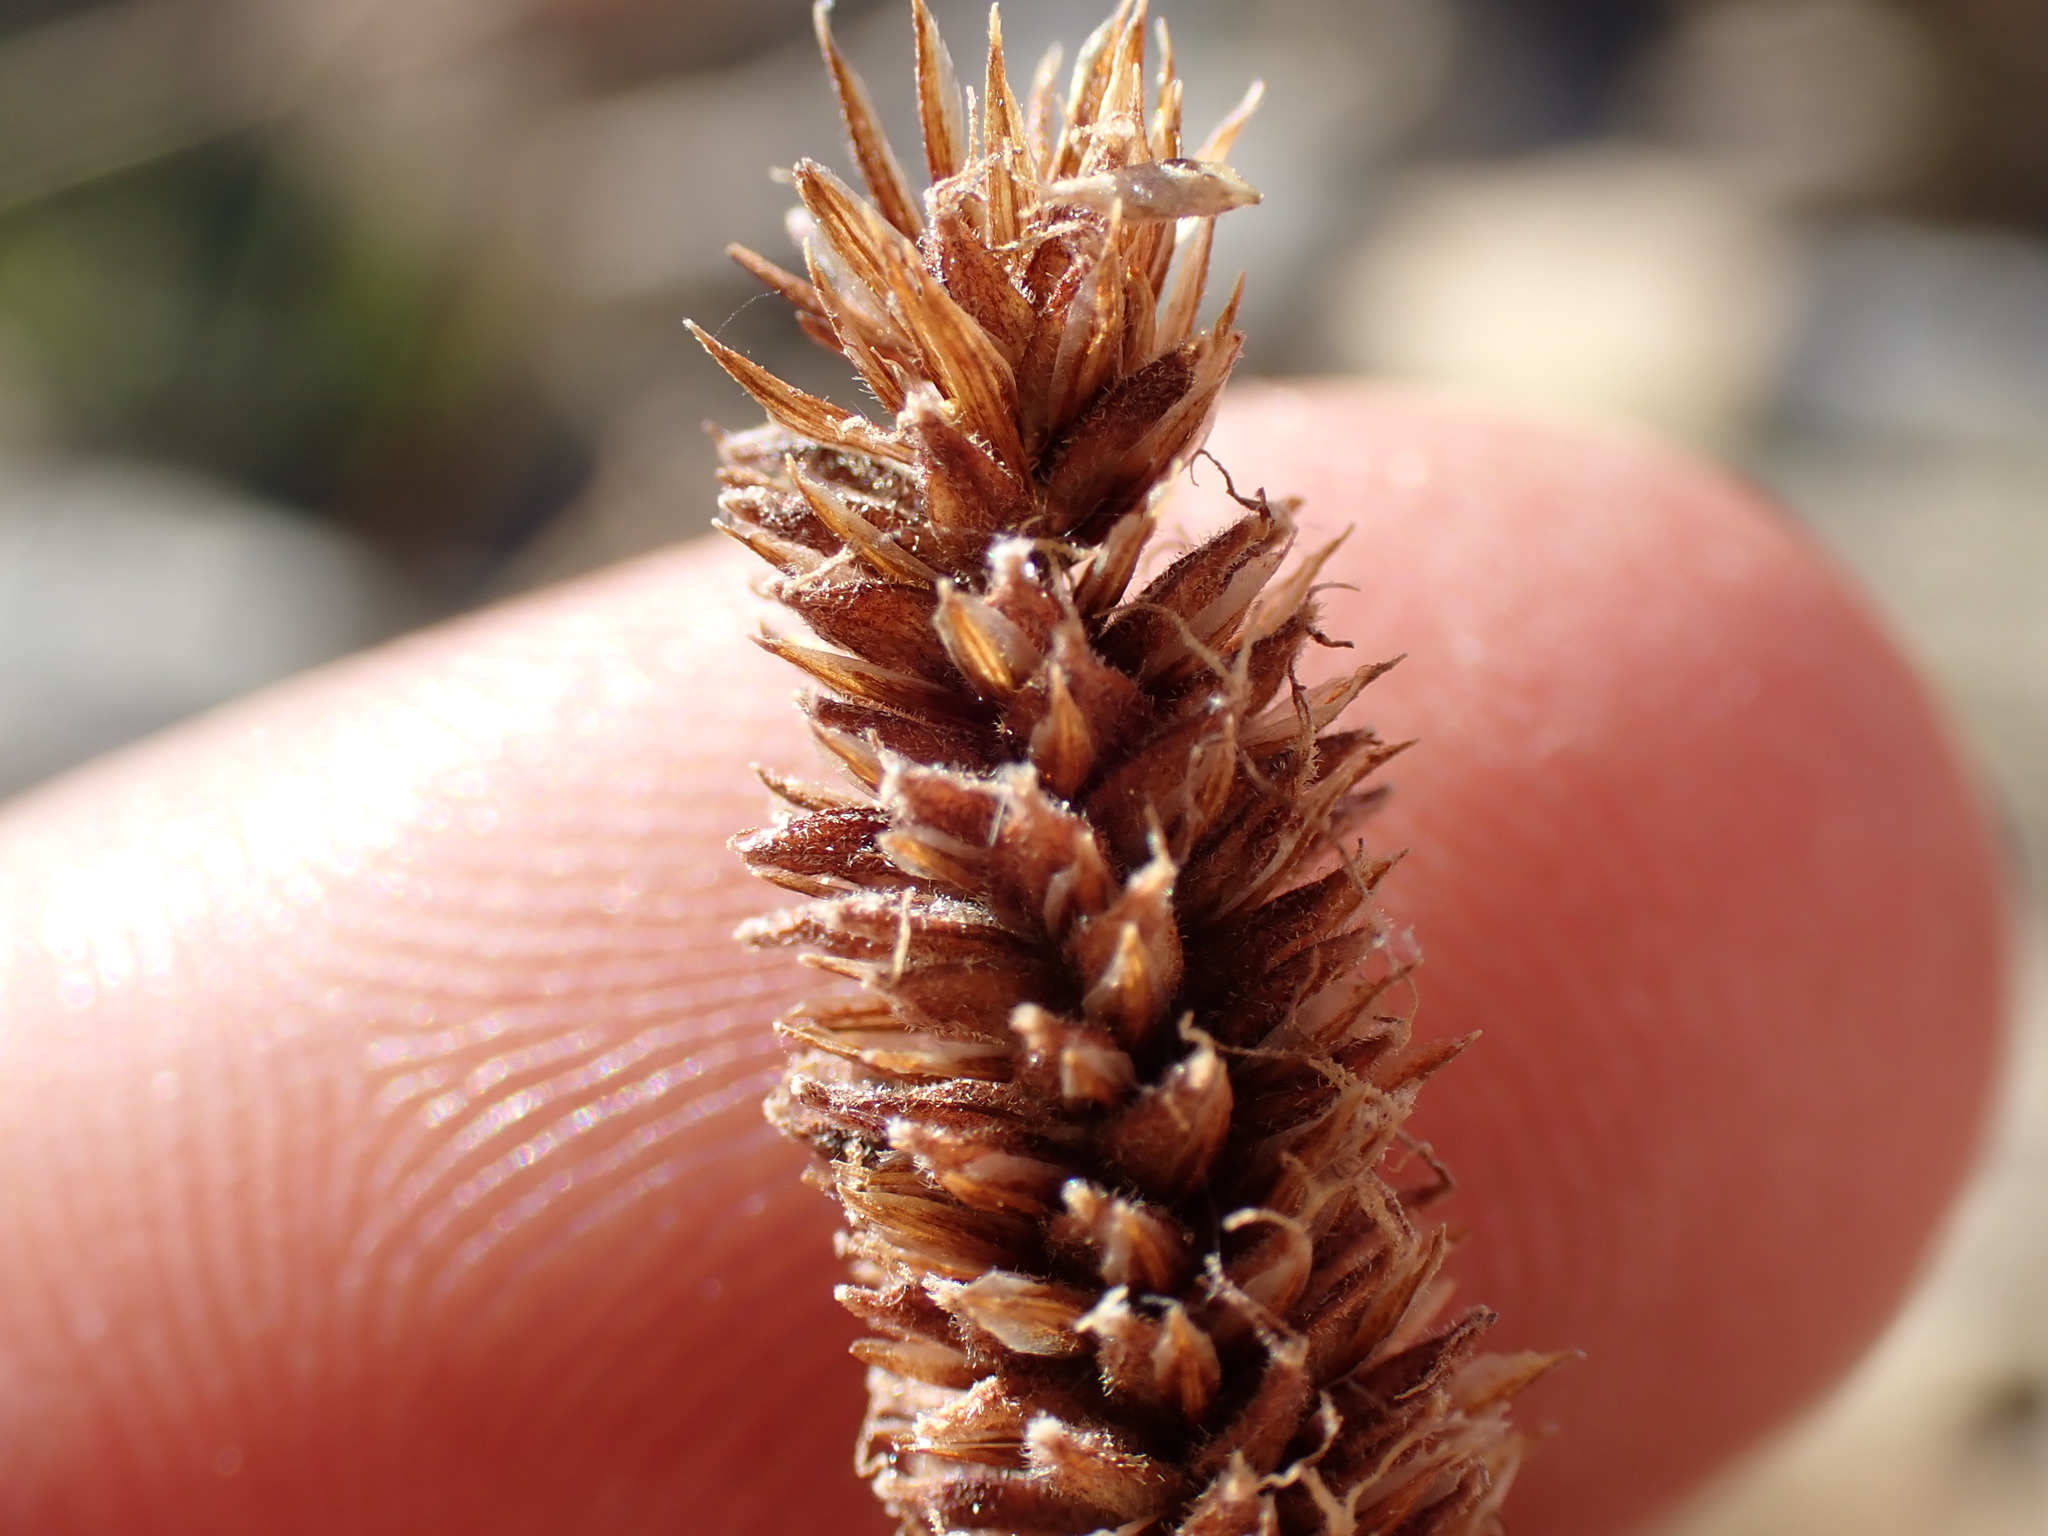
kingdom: Plantae
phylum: Tracheophyta
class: Liliopsida
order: Poales
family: Cyperaceae
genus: Carex
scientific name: Carex congdonii
